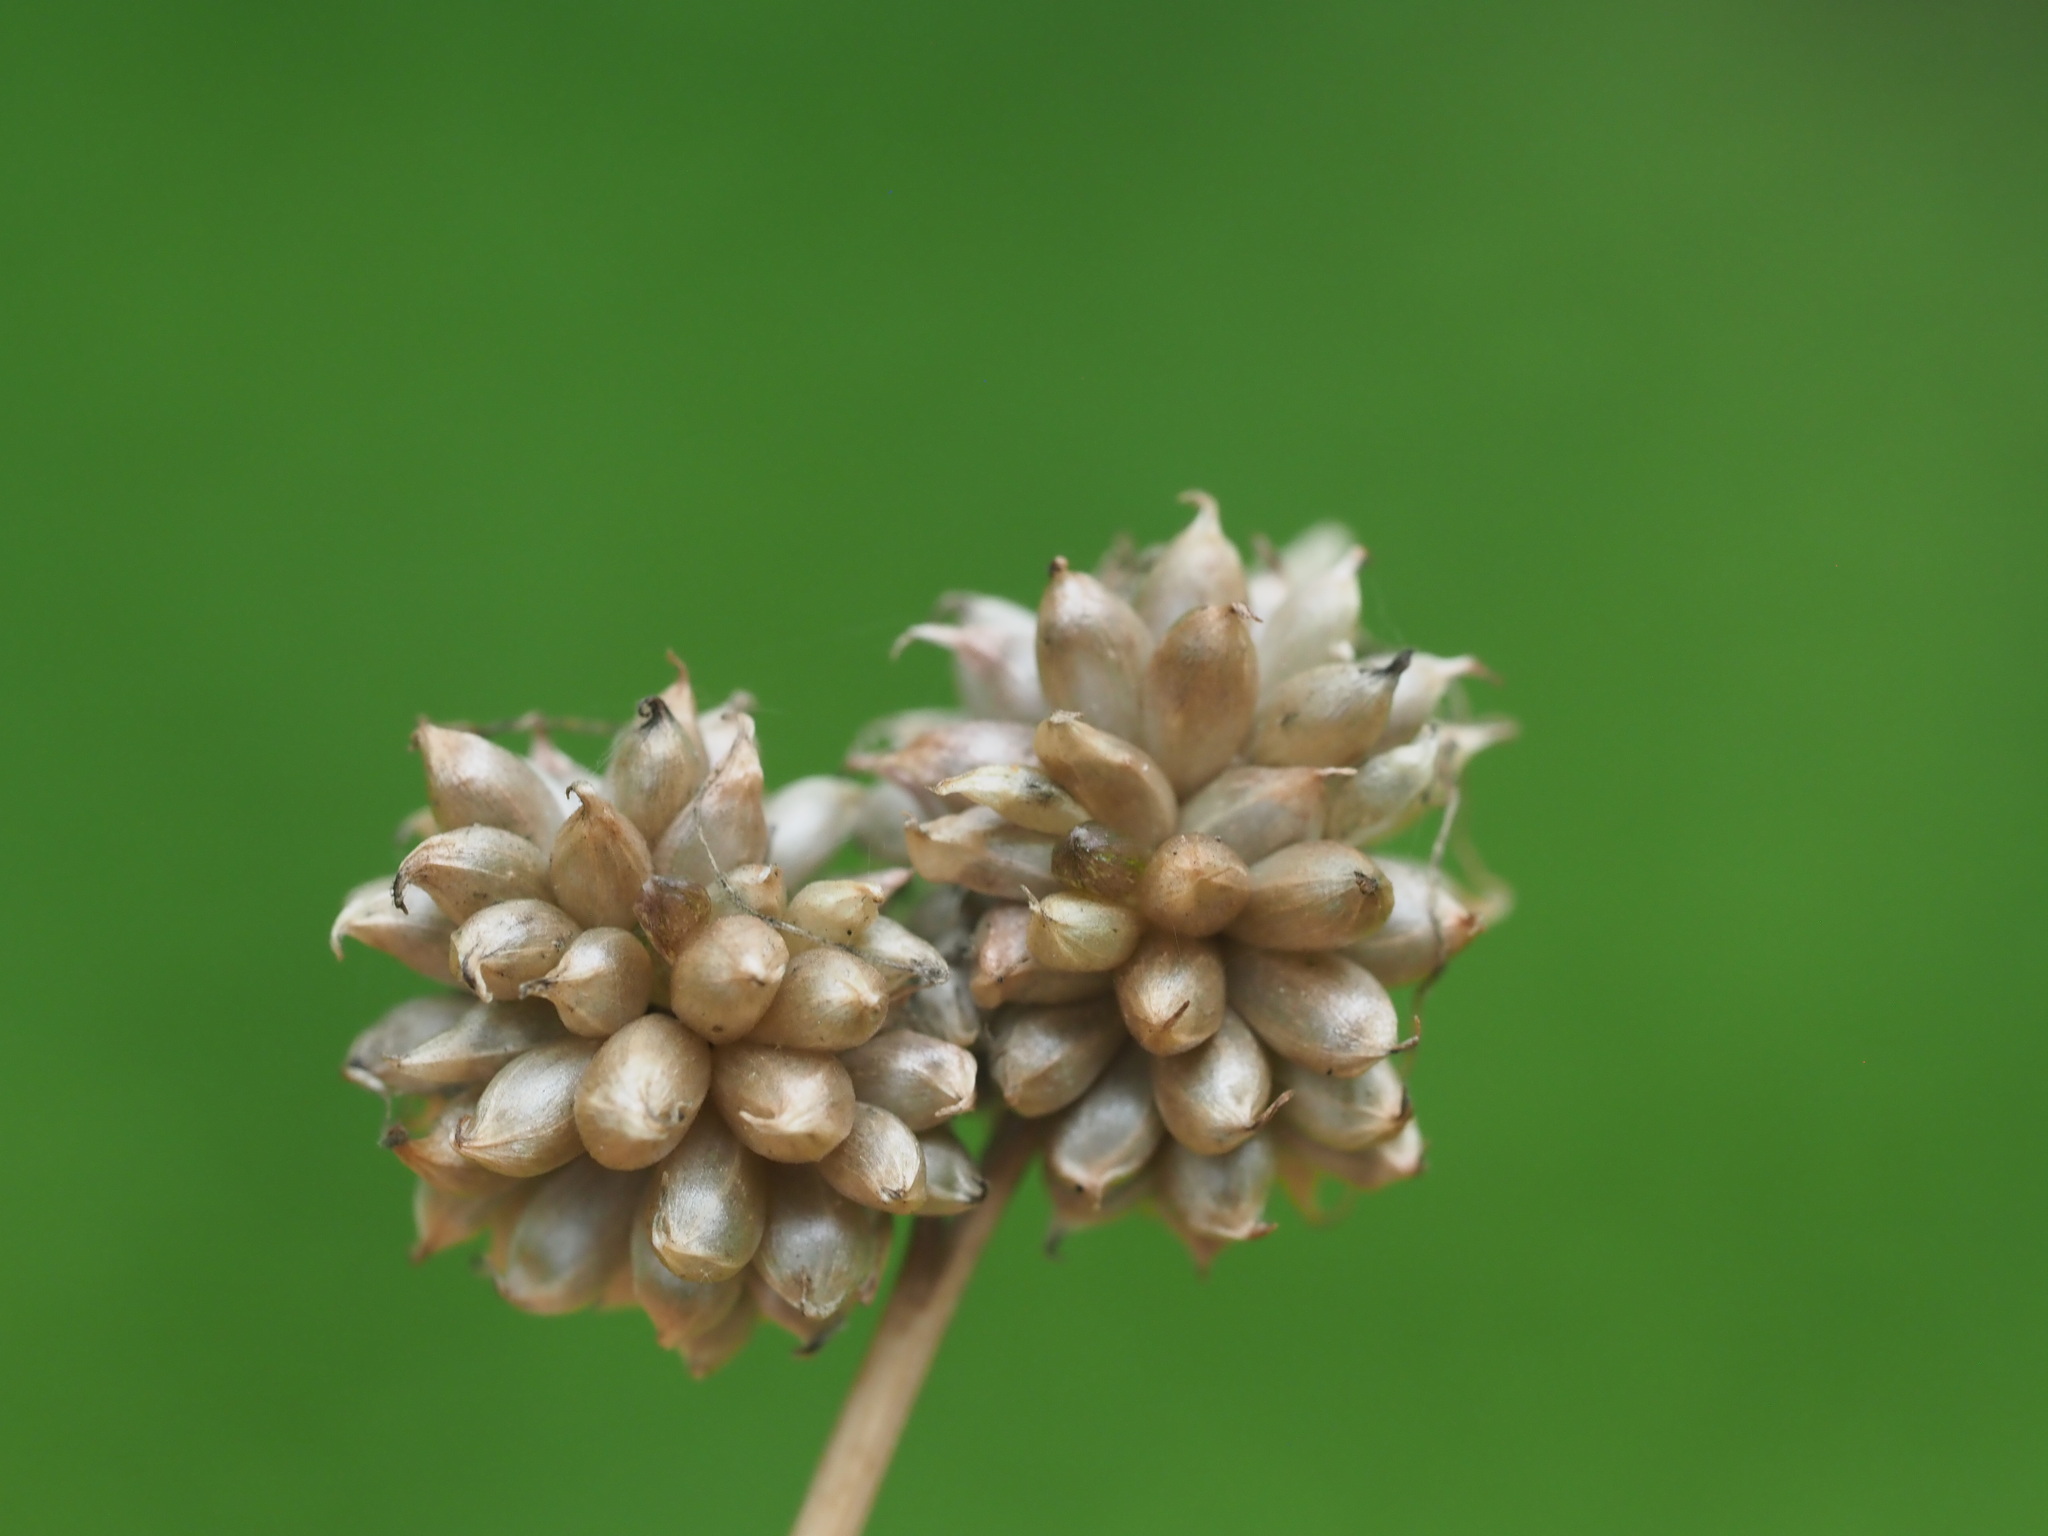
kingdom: Plantae
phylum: Tracheophyta
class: Liliopsida
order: Asparagales
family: Amaryllidaceae
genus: Allium
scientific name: Allium vineale
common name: Crow garlic
